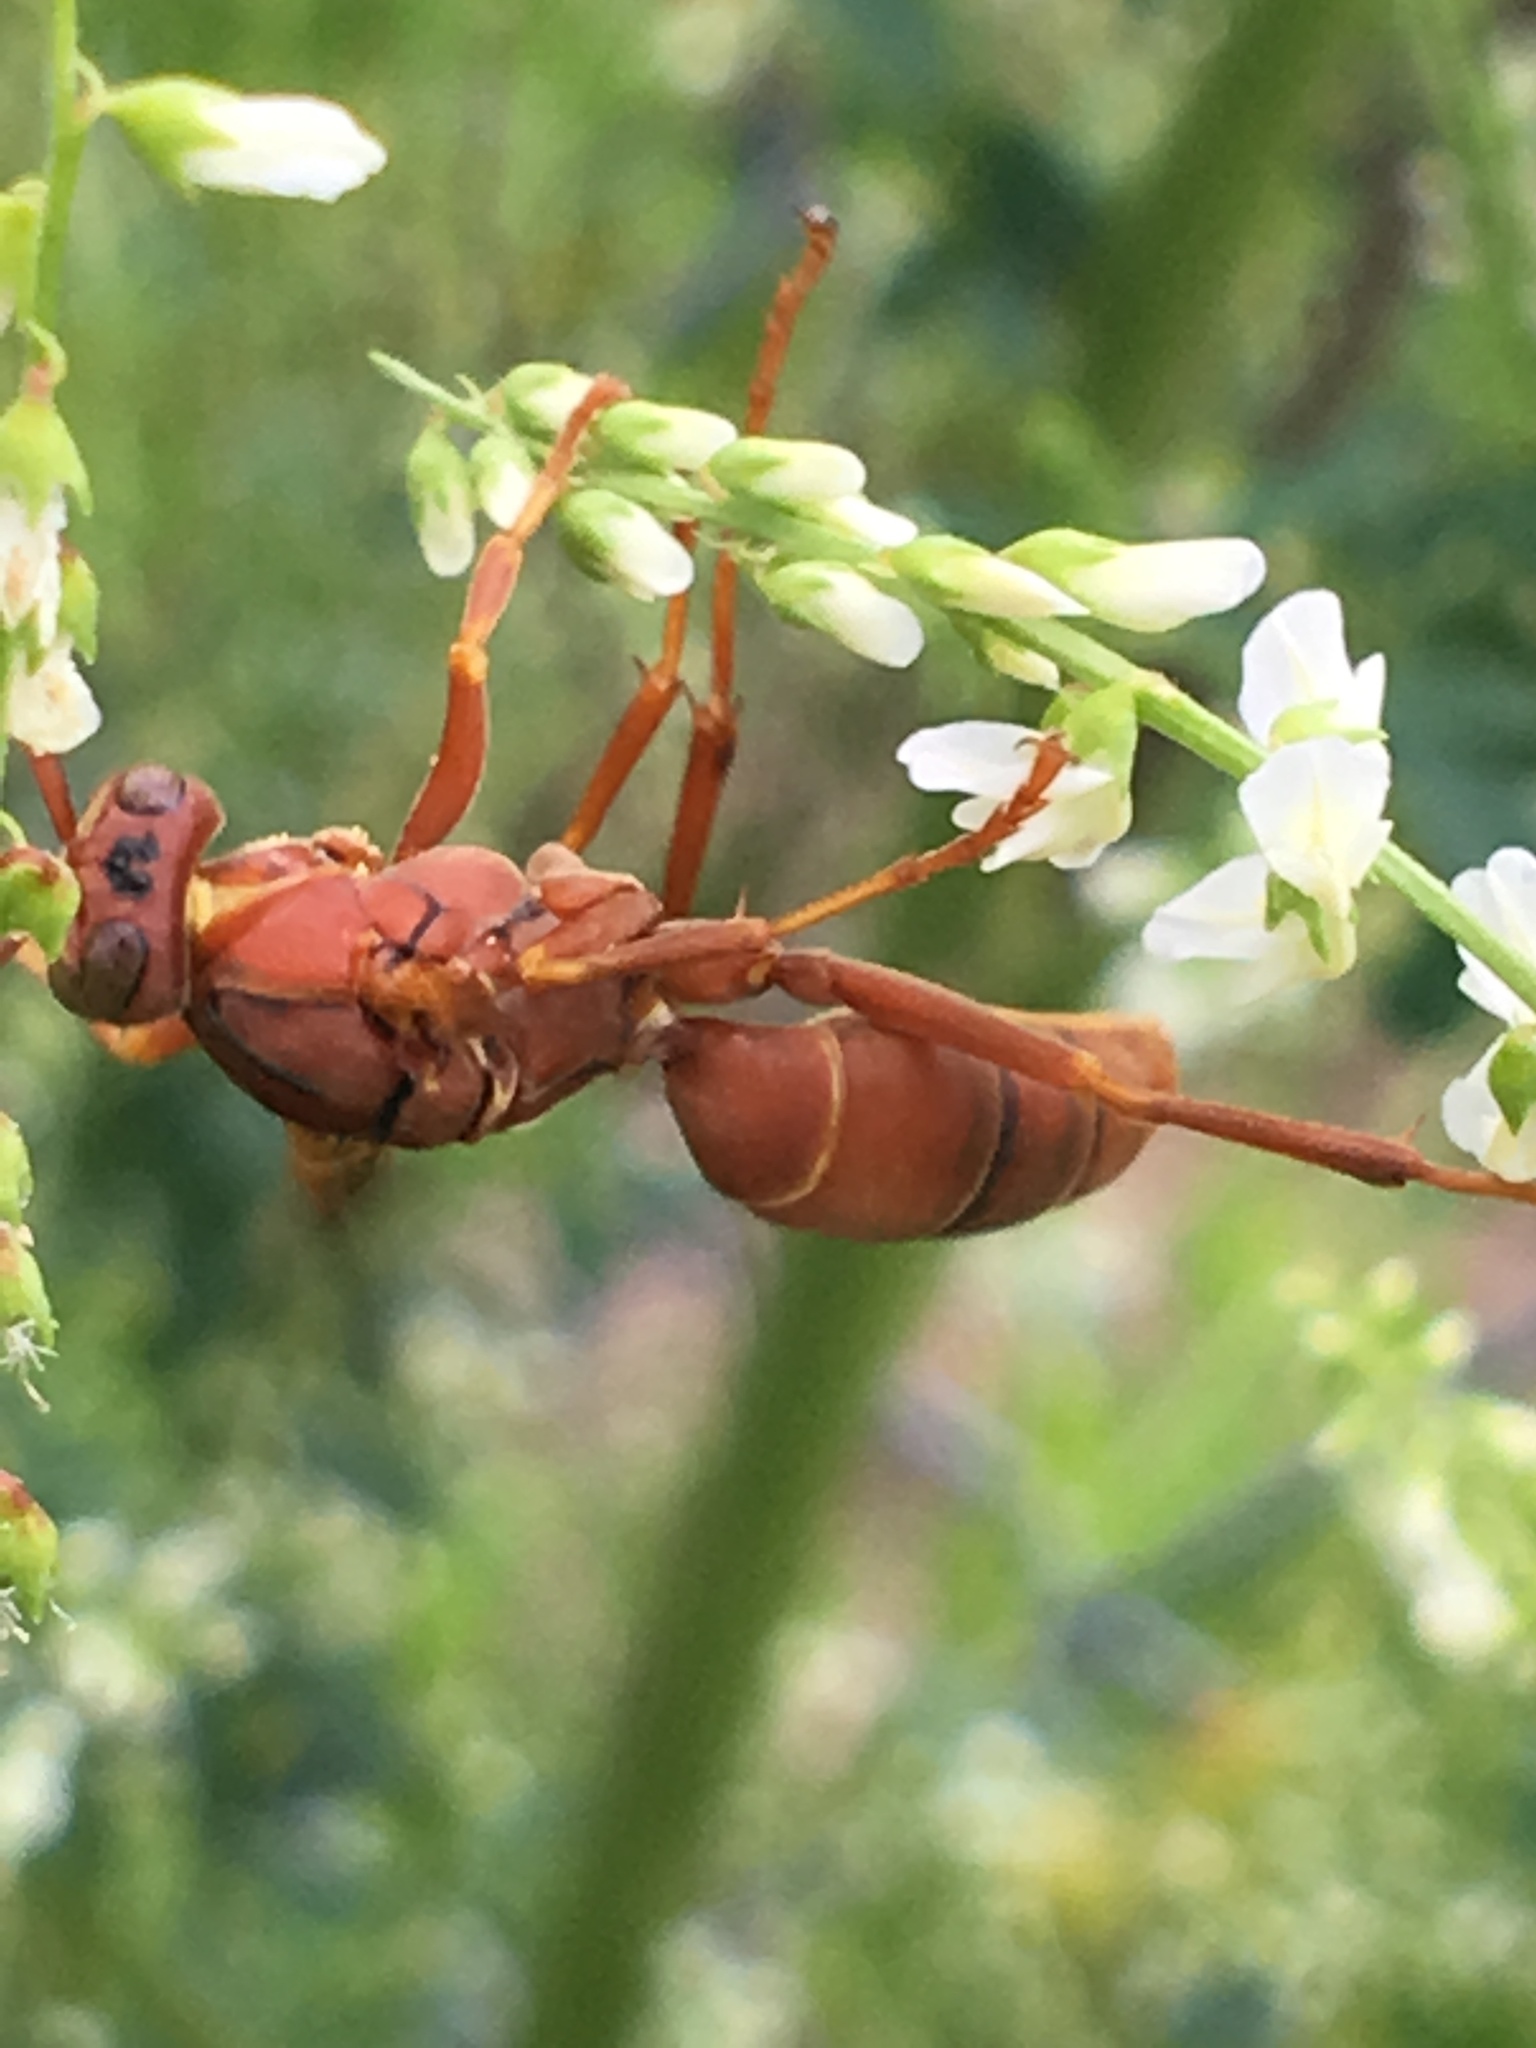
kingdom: Animalia
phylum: Arthropoda
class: Insecta
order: Hymenoptera
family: Vespidae
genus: Fuscopolistes
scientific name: Fuscopolistes
